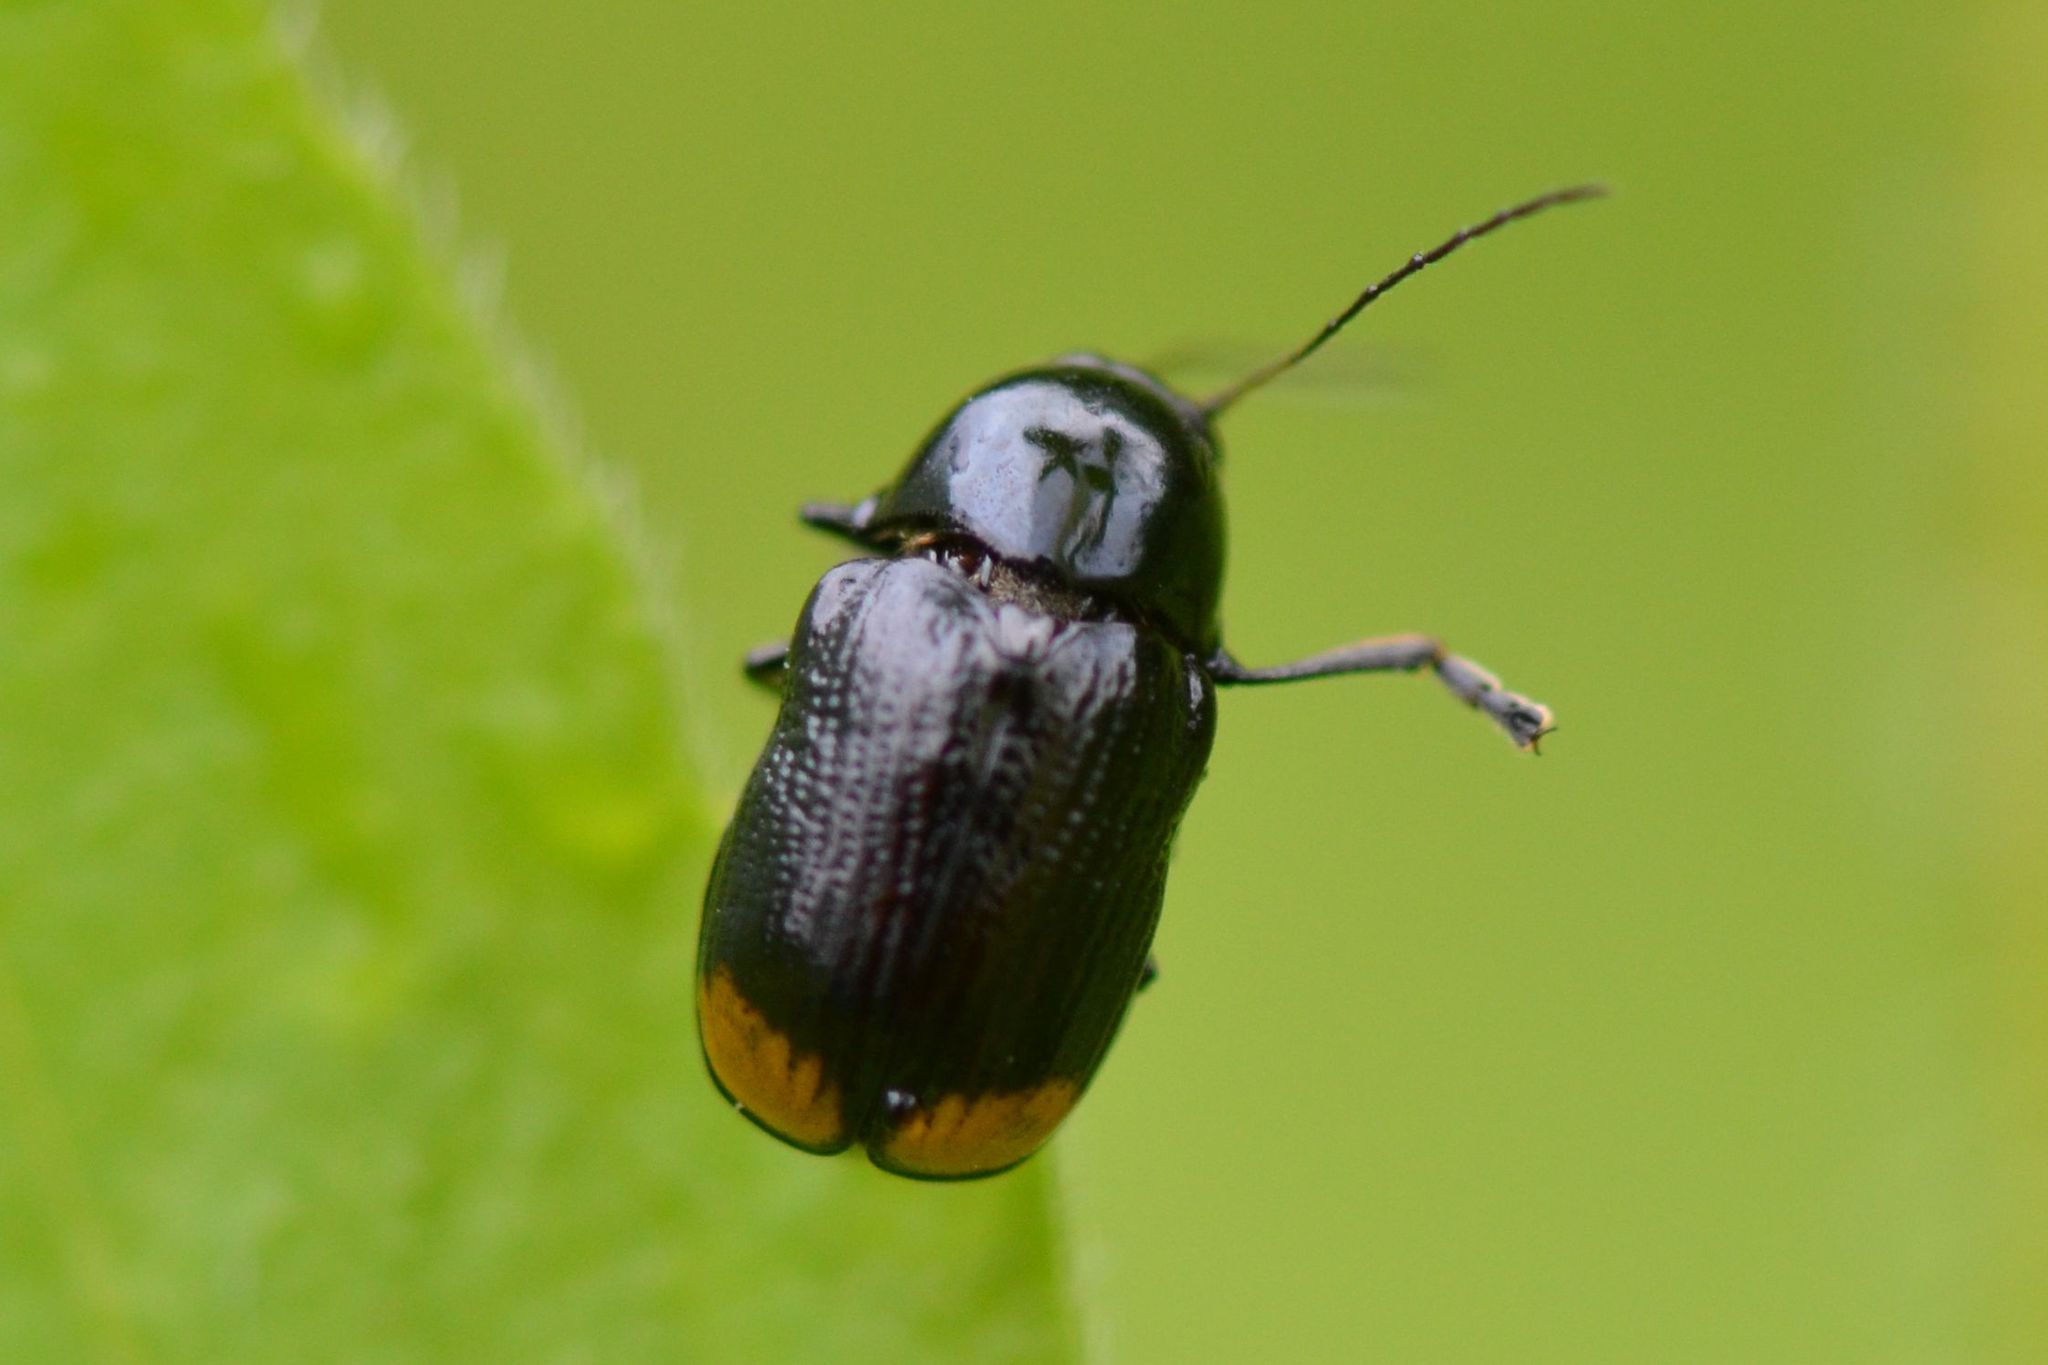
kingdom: Animalia
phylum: Arthropoda
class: Insecta
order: Coleoptera
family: Chrysomelidae
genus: Cryptocephalus
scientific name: Cryptocephalus biguttatus
